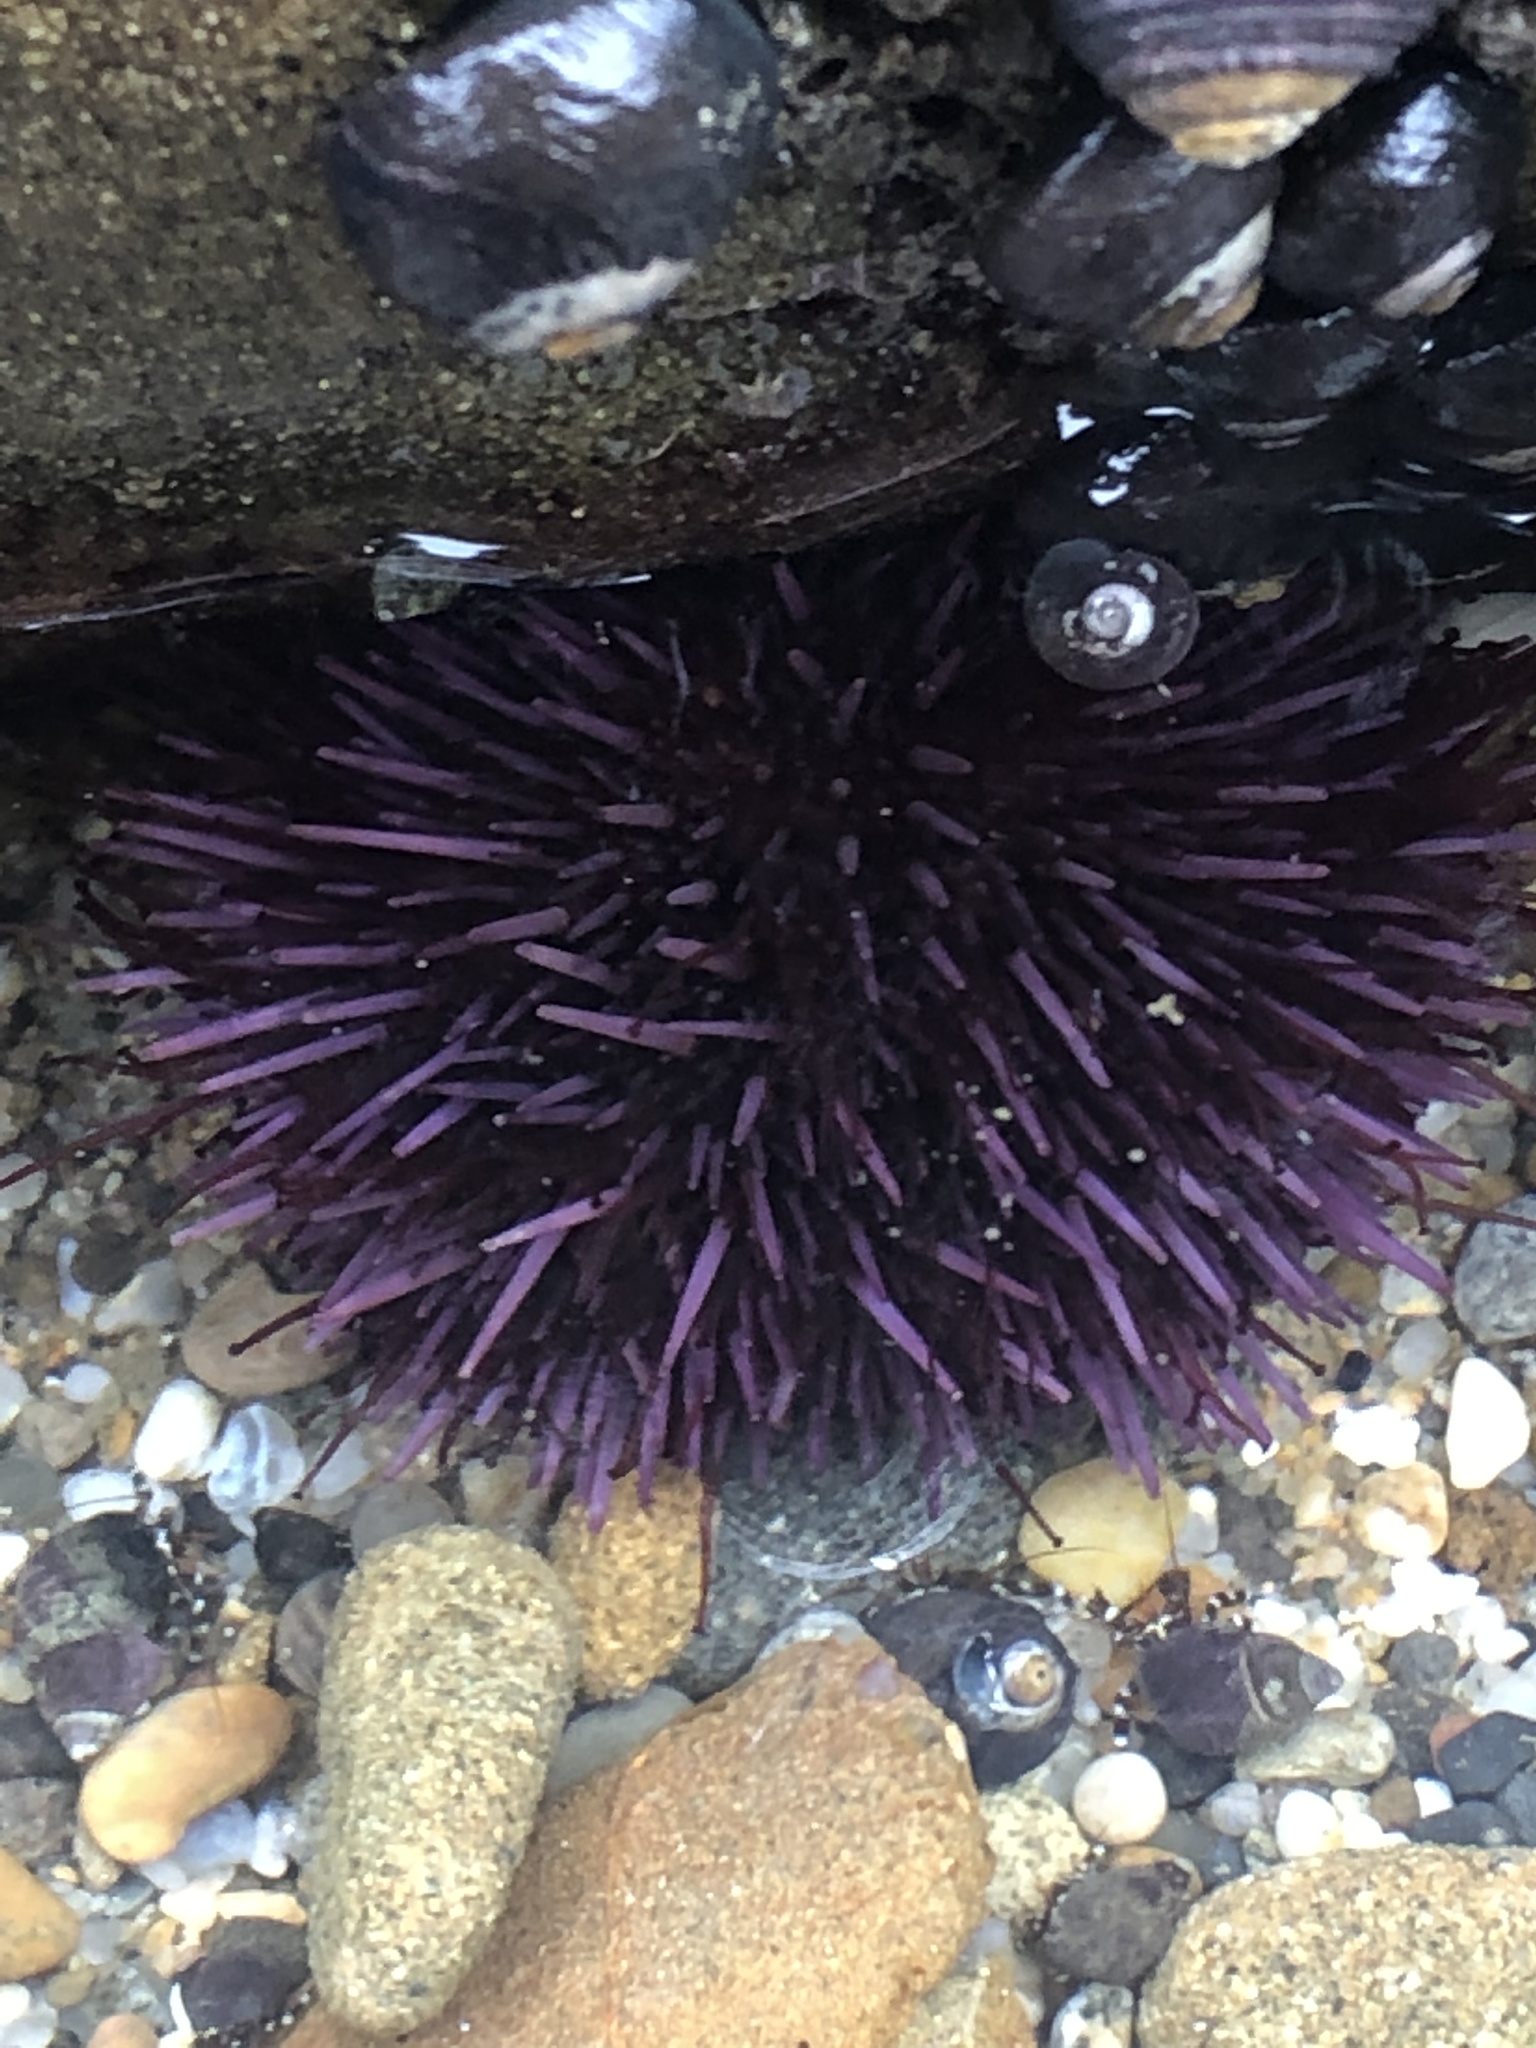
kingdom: Animalia
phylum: Echinodermata
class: Echinoidea
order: Camarodonta
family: Strongylocentrotidae
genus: Strongylocentrotus
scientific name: Strongylocentrotus purpuratus
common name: Purple sea urchin
